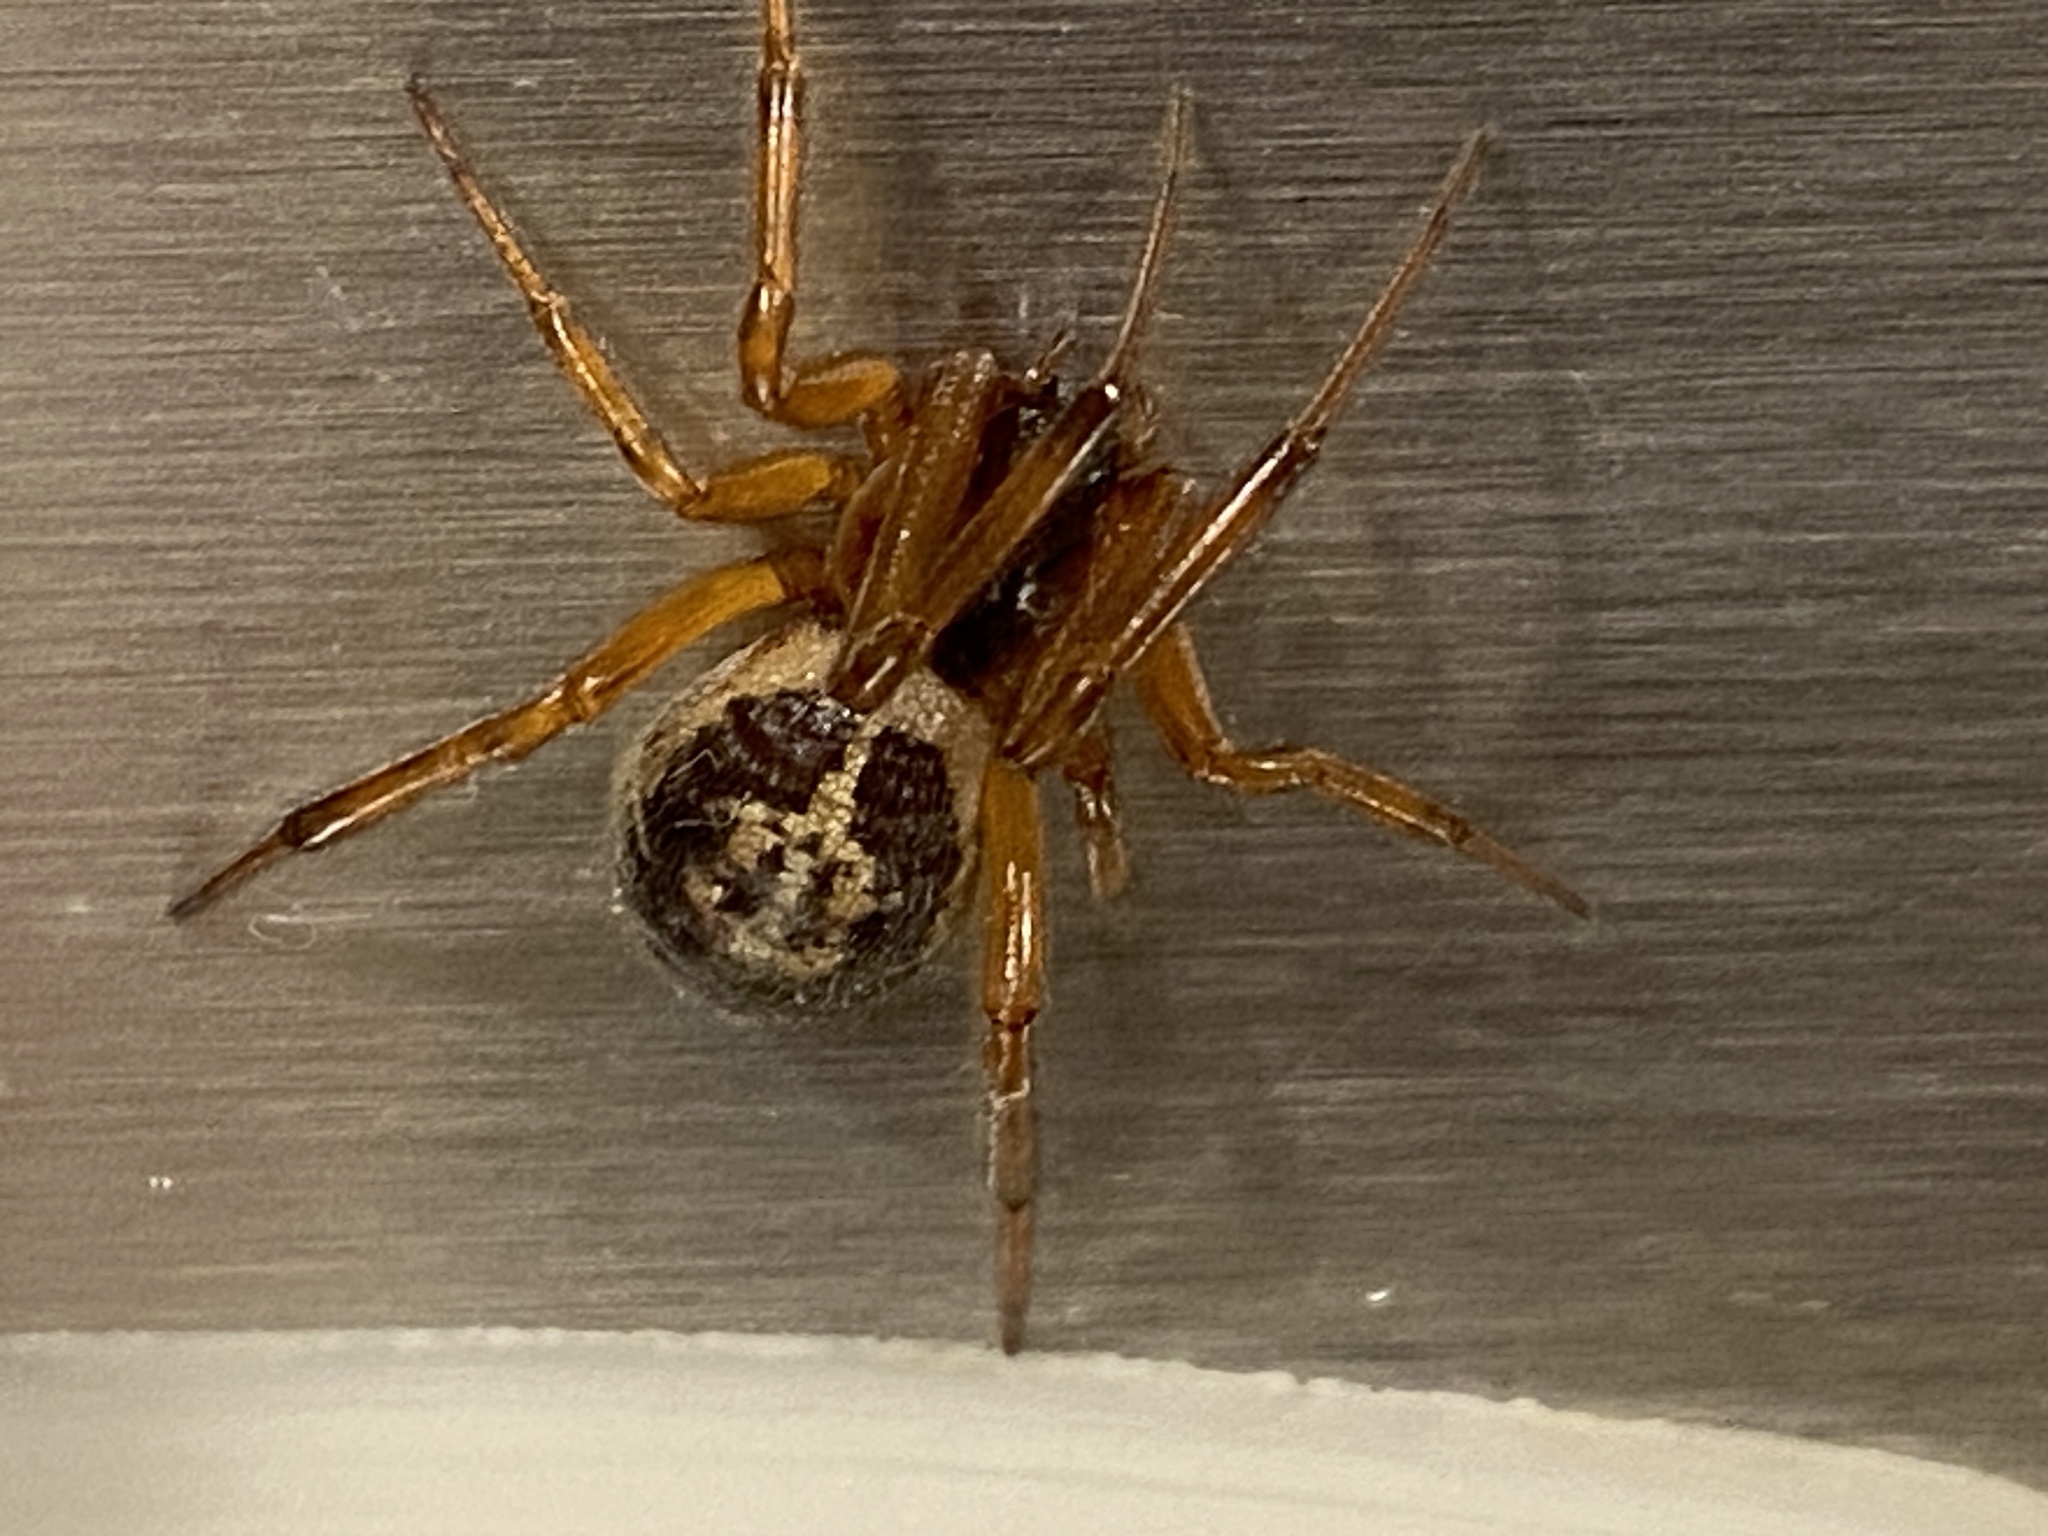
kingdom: Animalia
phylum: Arthropoda
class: Arachnida
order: Araneae
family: Theridiidae
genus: Steatoda
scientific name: Steatoda nobilis
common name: Cobweb weaver
